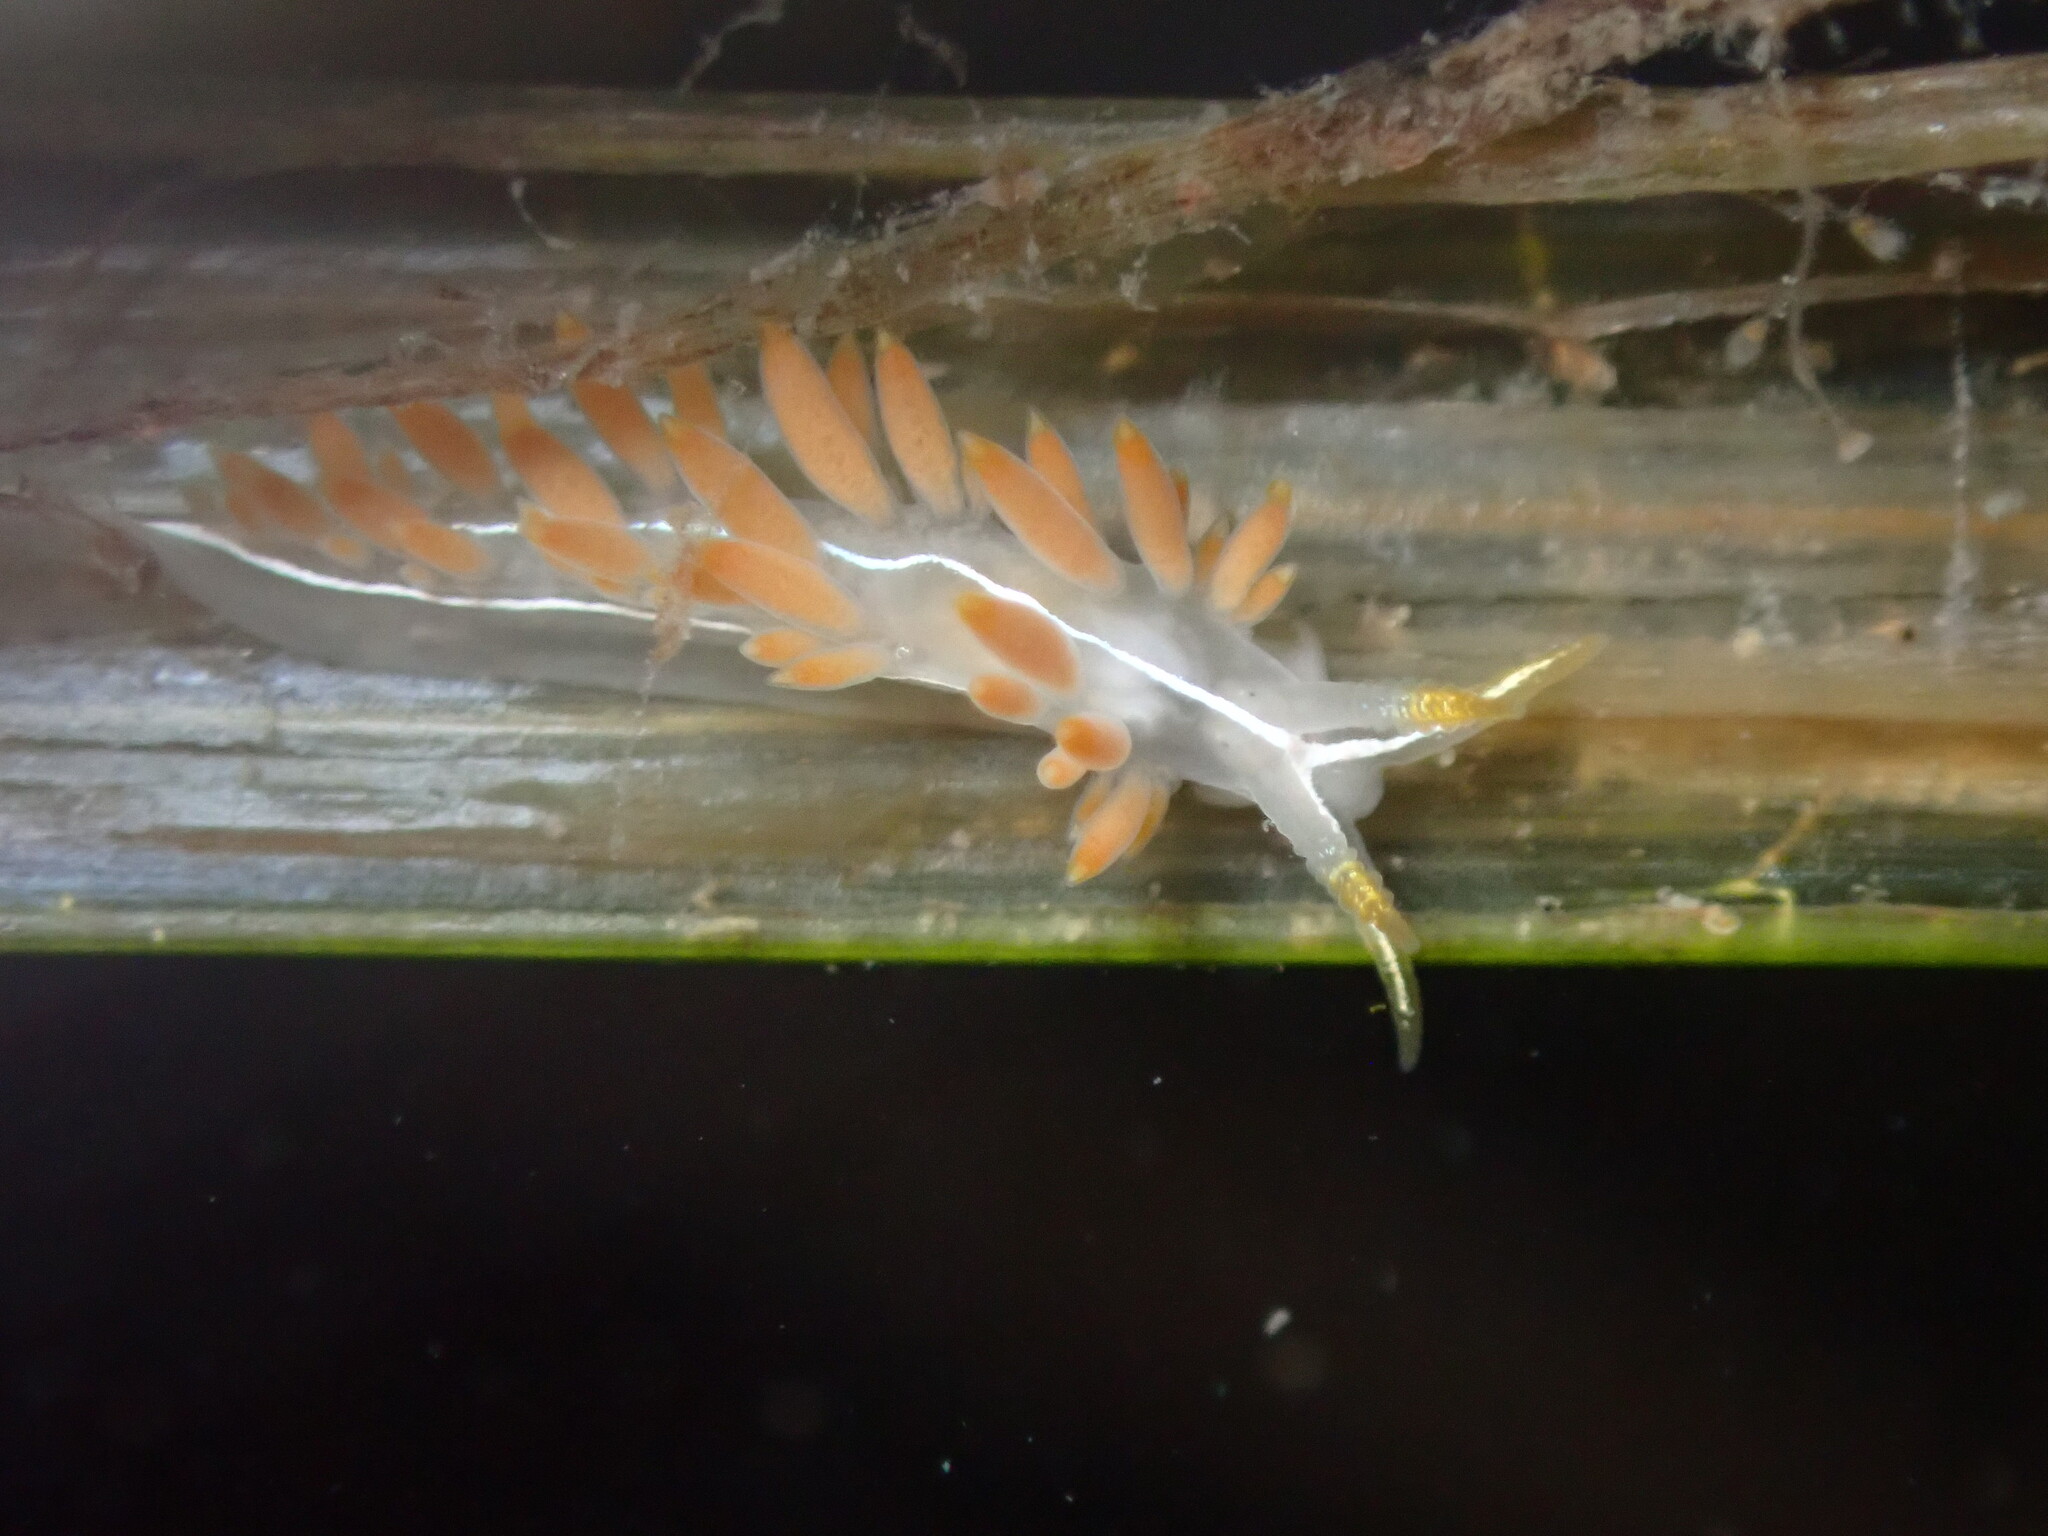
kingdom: Animalia
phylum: Mollusca
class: Gastropoda
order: Nudibranchia
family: Coryphellidae
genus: Coryphella
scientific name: Coryphella trilineata
